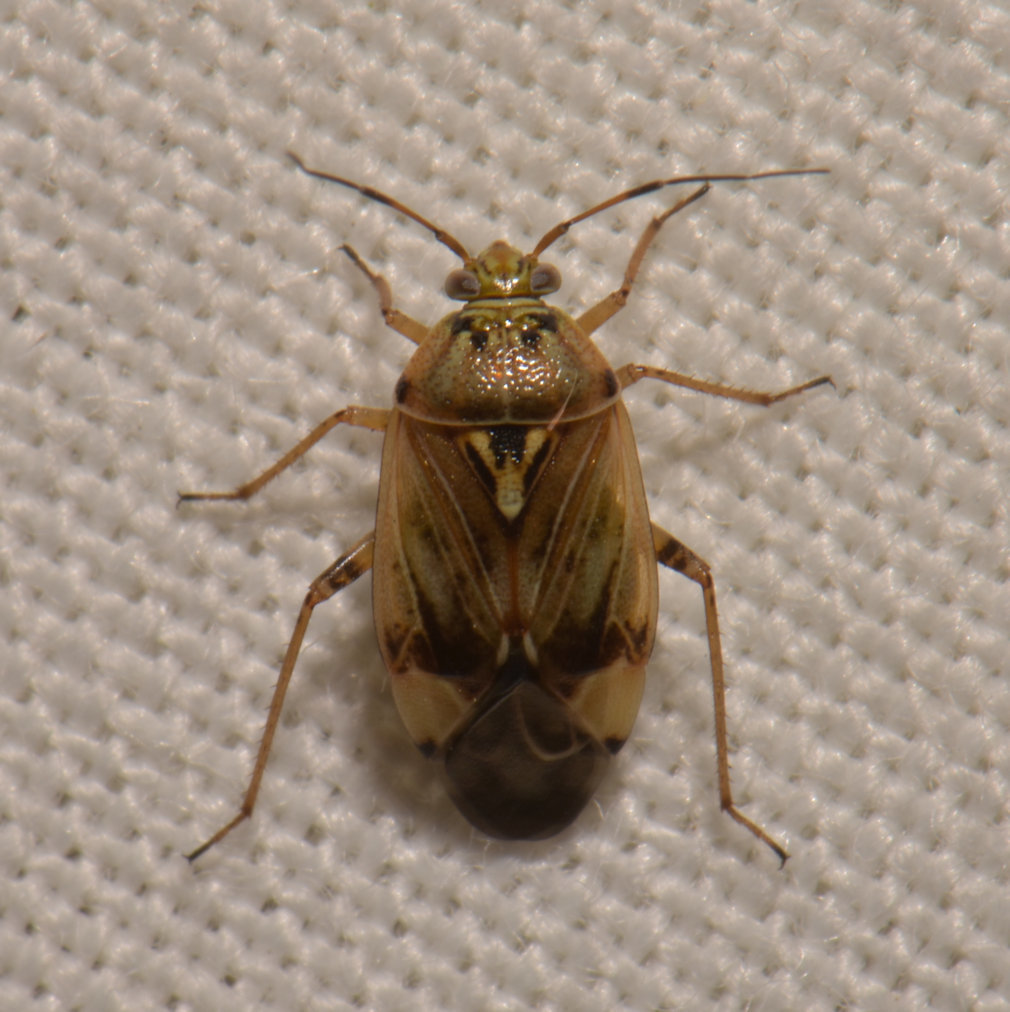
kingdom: Animalia
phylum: Arthropoda
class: Insecta
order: Hemiptera
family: Miridae
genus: Lygus
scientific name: Lygus lineolaris
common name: North american tarnished plant bug
